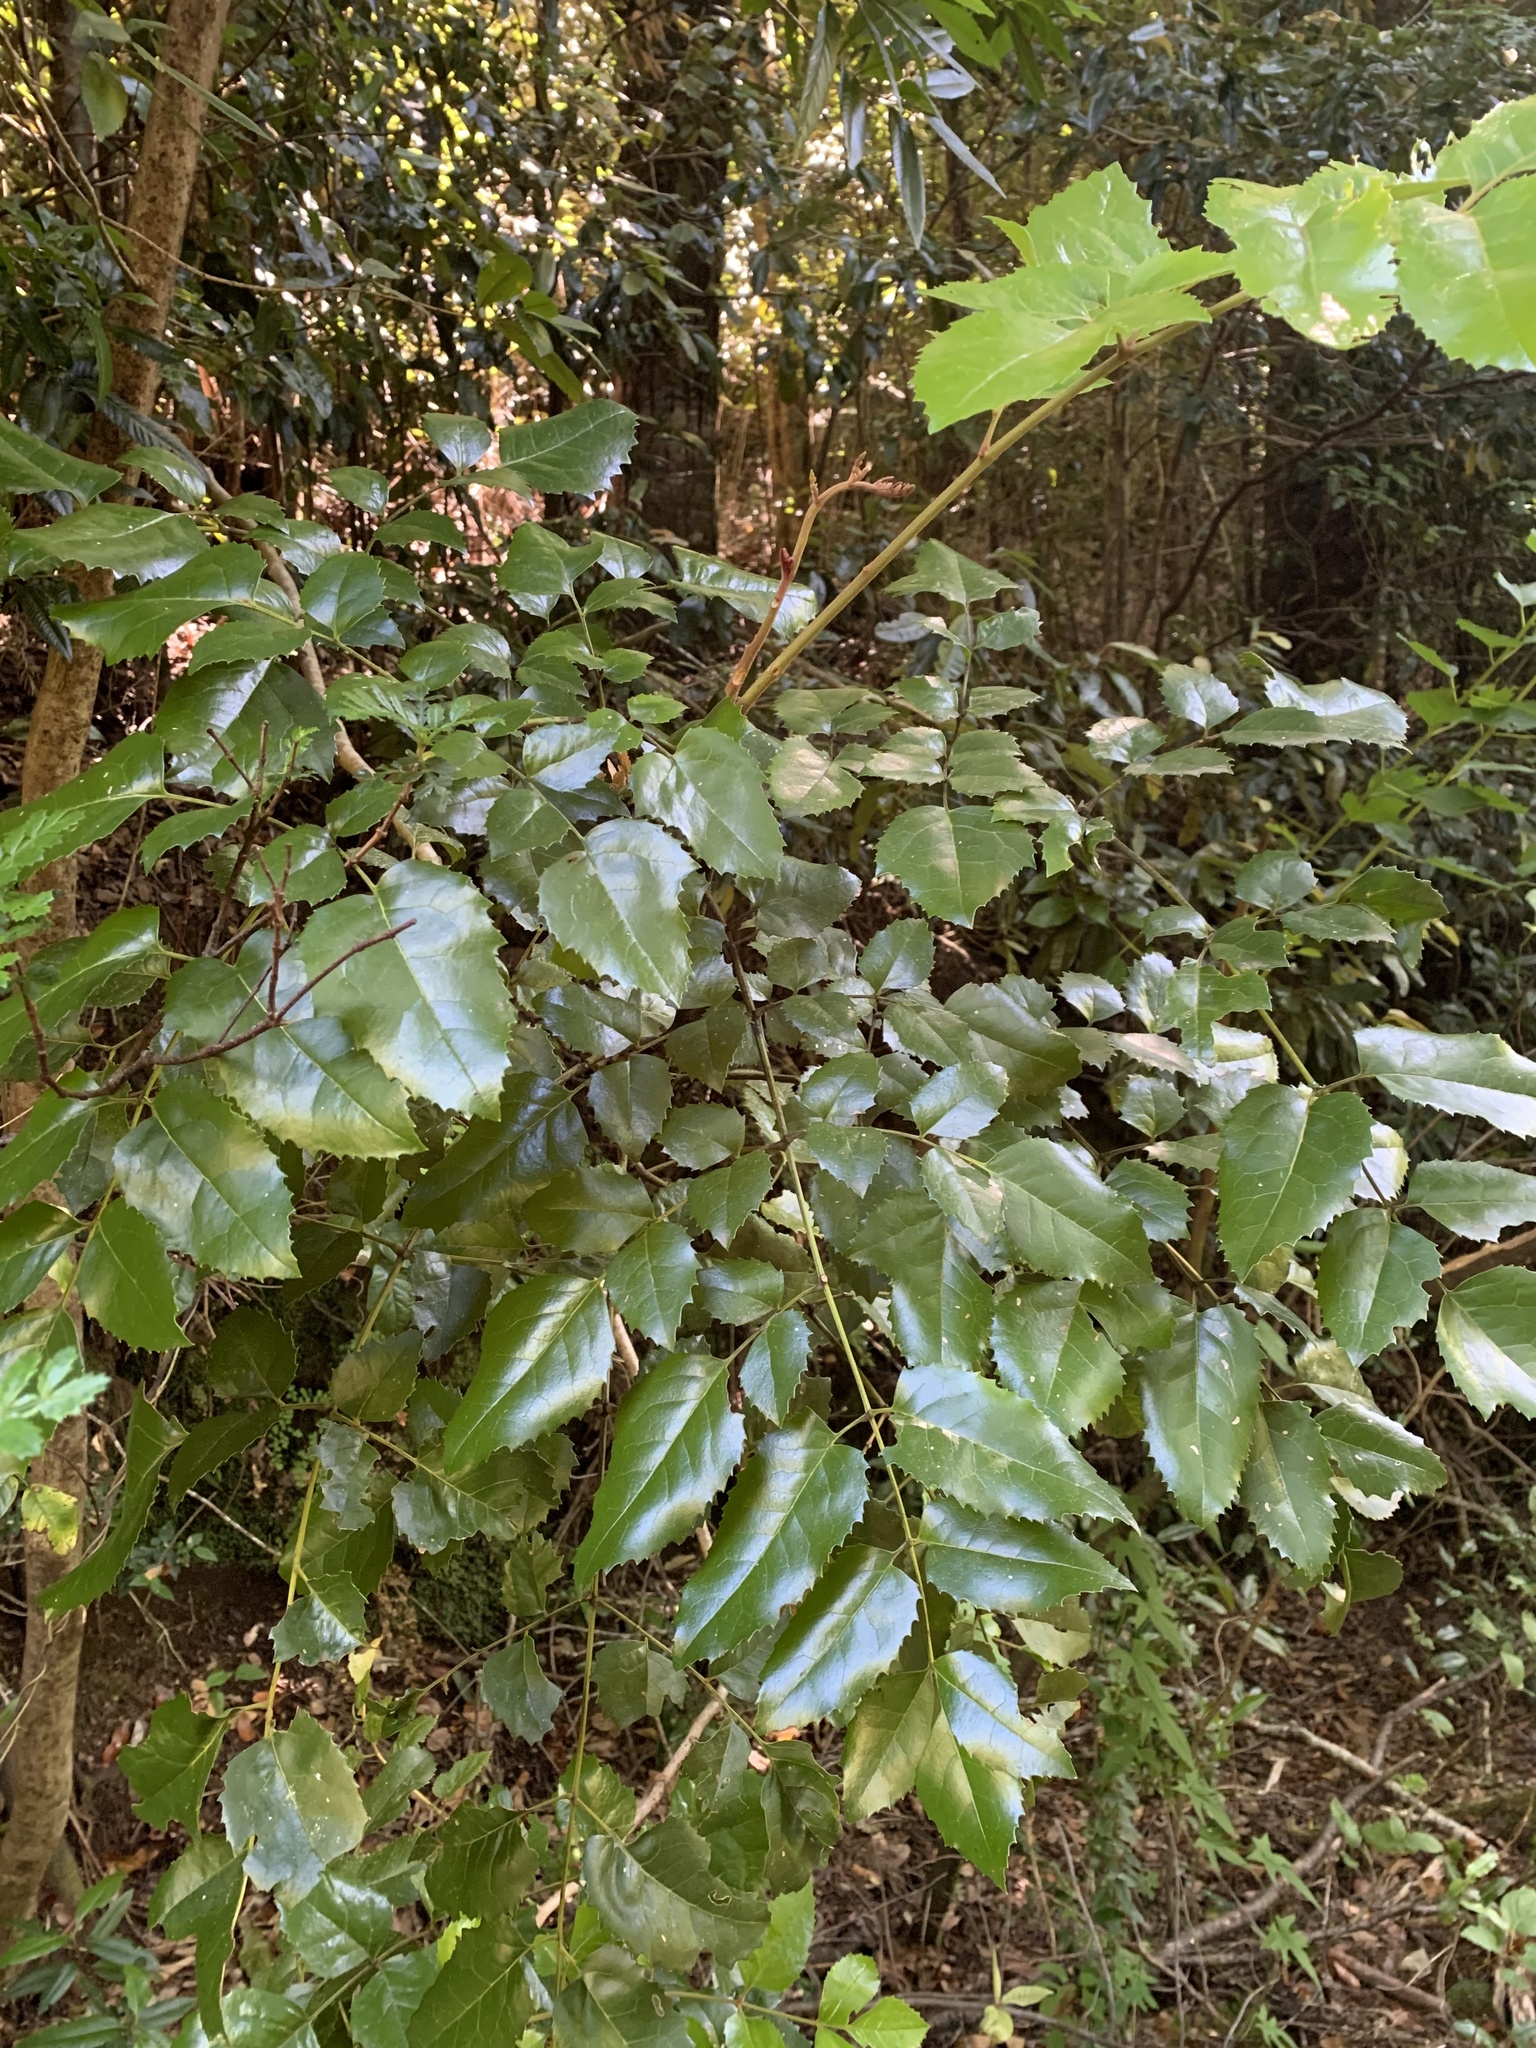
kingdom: Plantae
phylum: Tracheophyta
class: Magnoliopsida
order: Proteales
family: Proteaceae
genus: Gevuina
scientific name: Gevuina avellana
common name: Chilean hazel
